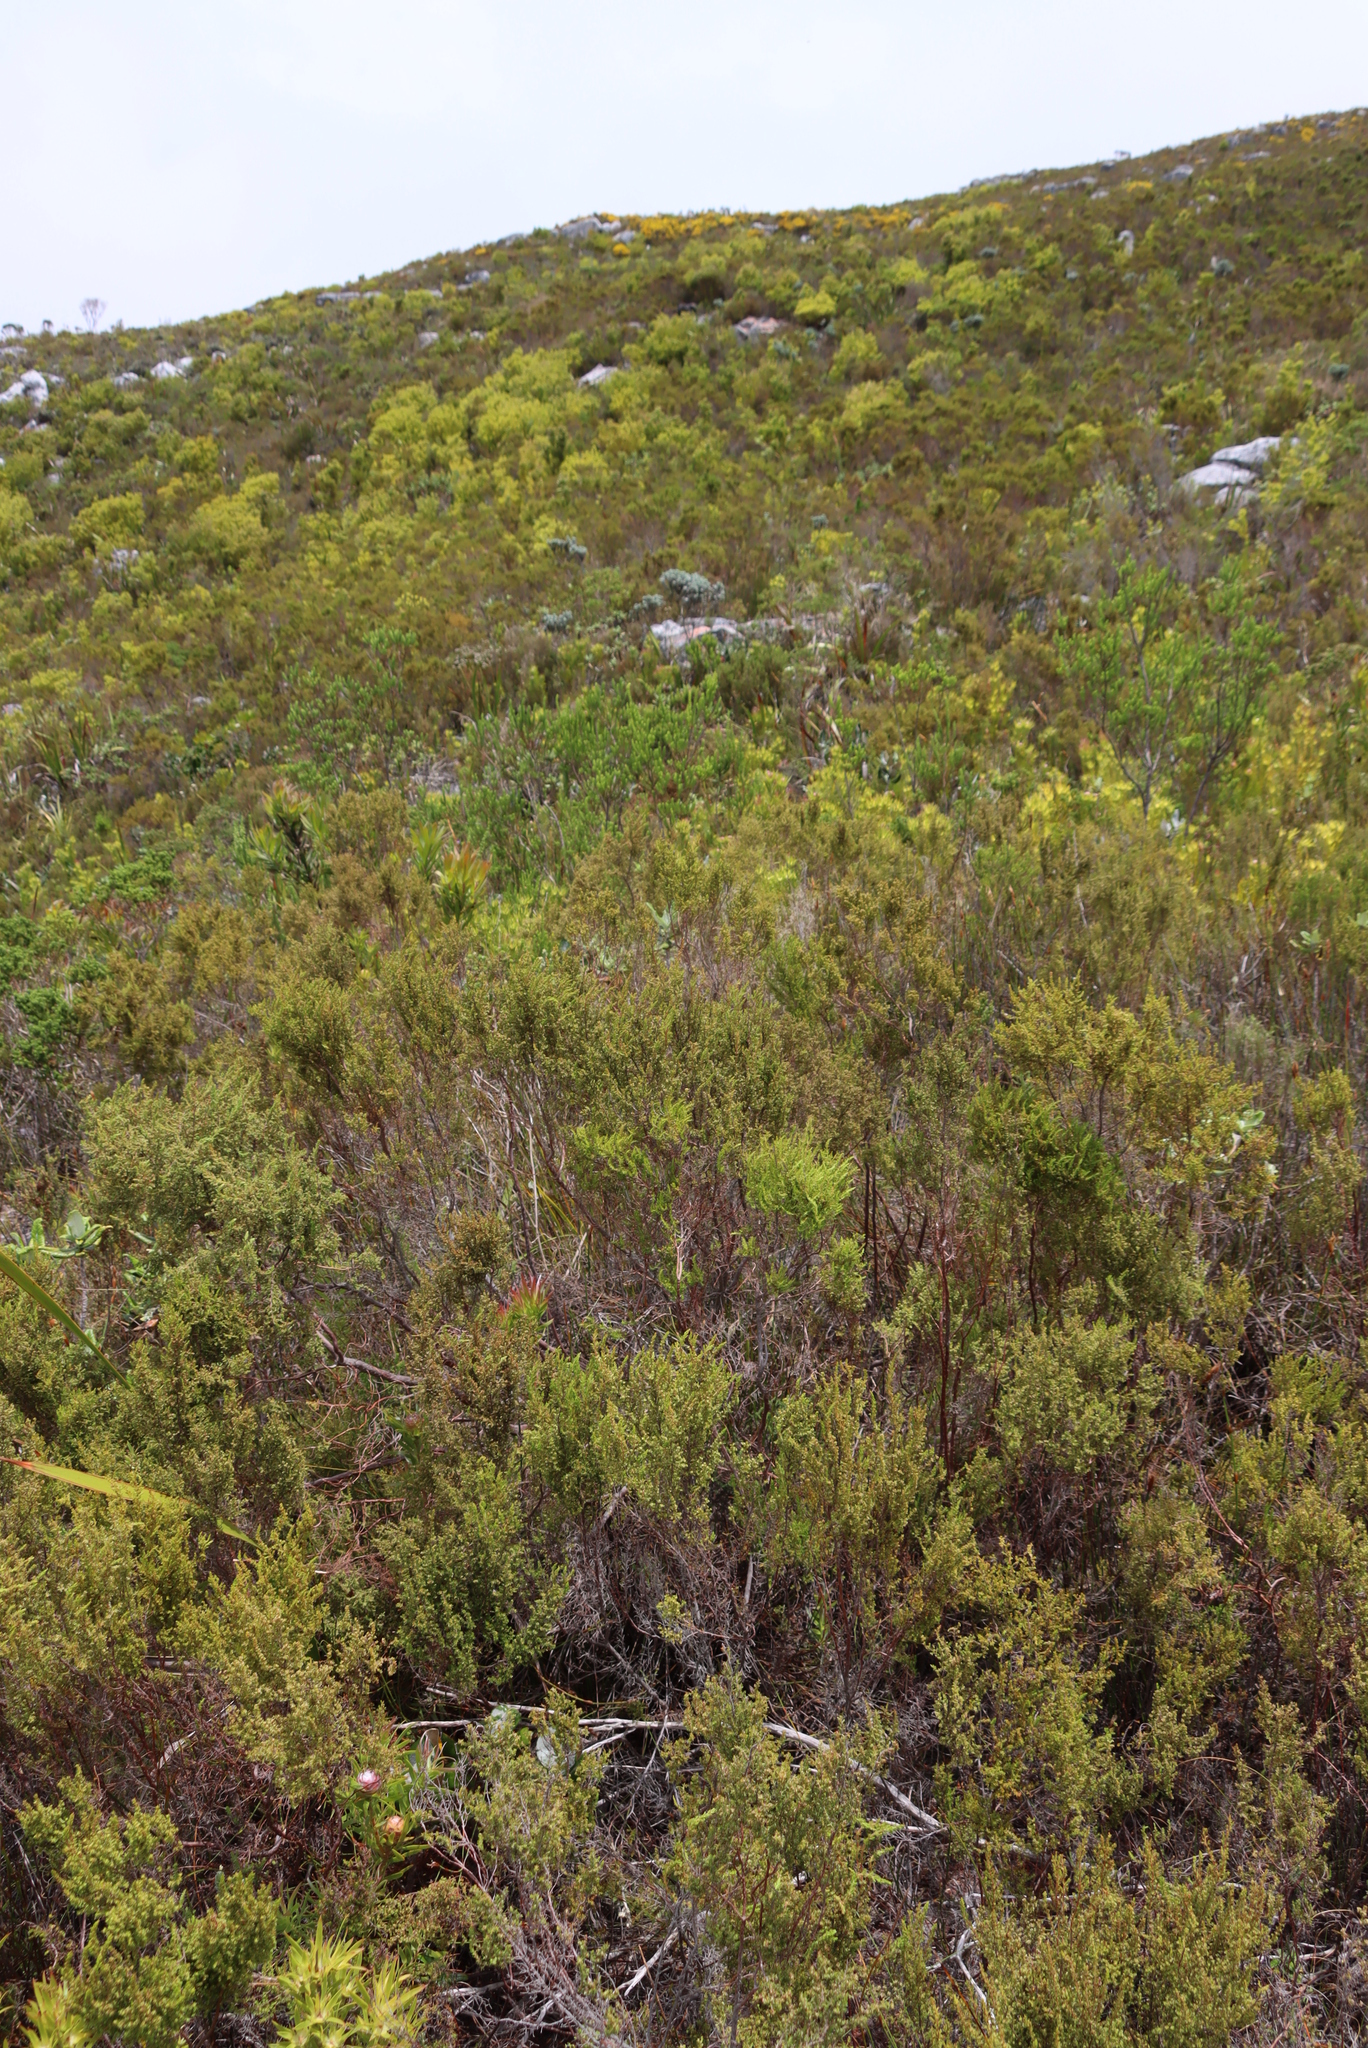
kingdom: Plantae
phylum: Tracheophyta
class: Magnoliopsida
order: Ericales
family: Ericaceae
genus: Erica
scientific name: Erica muscosa
